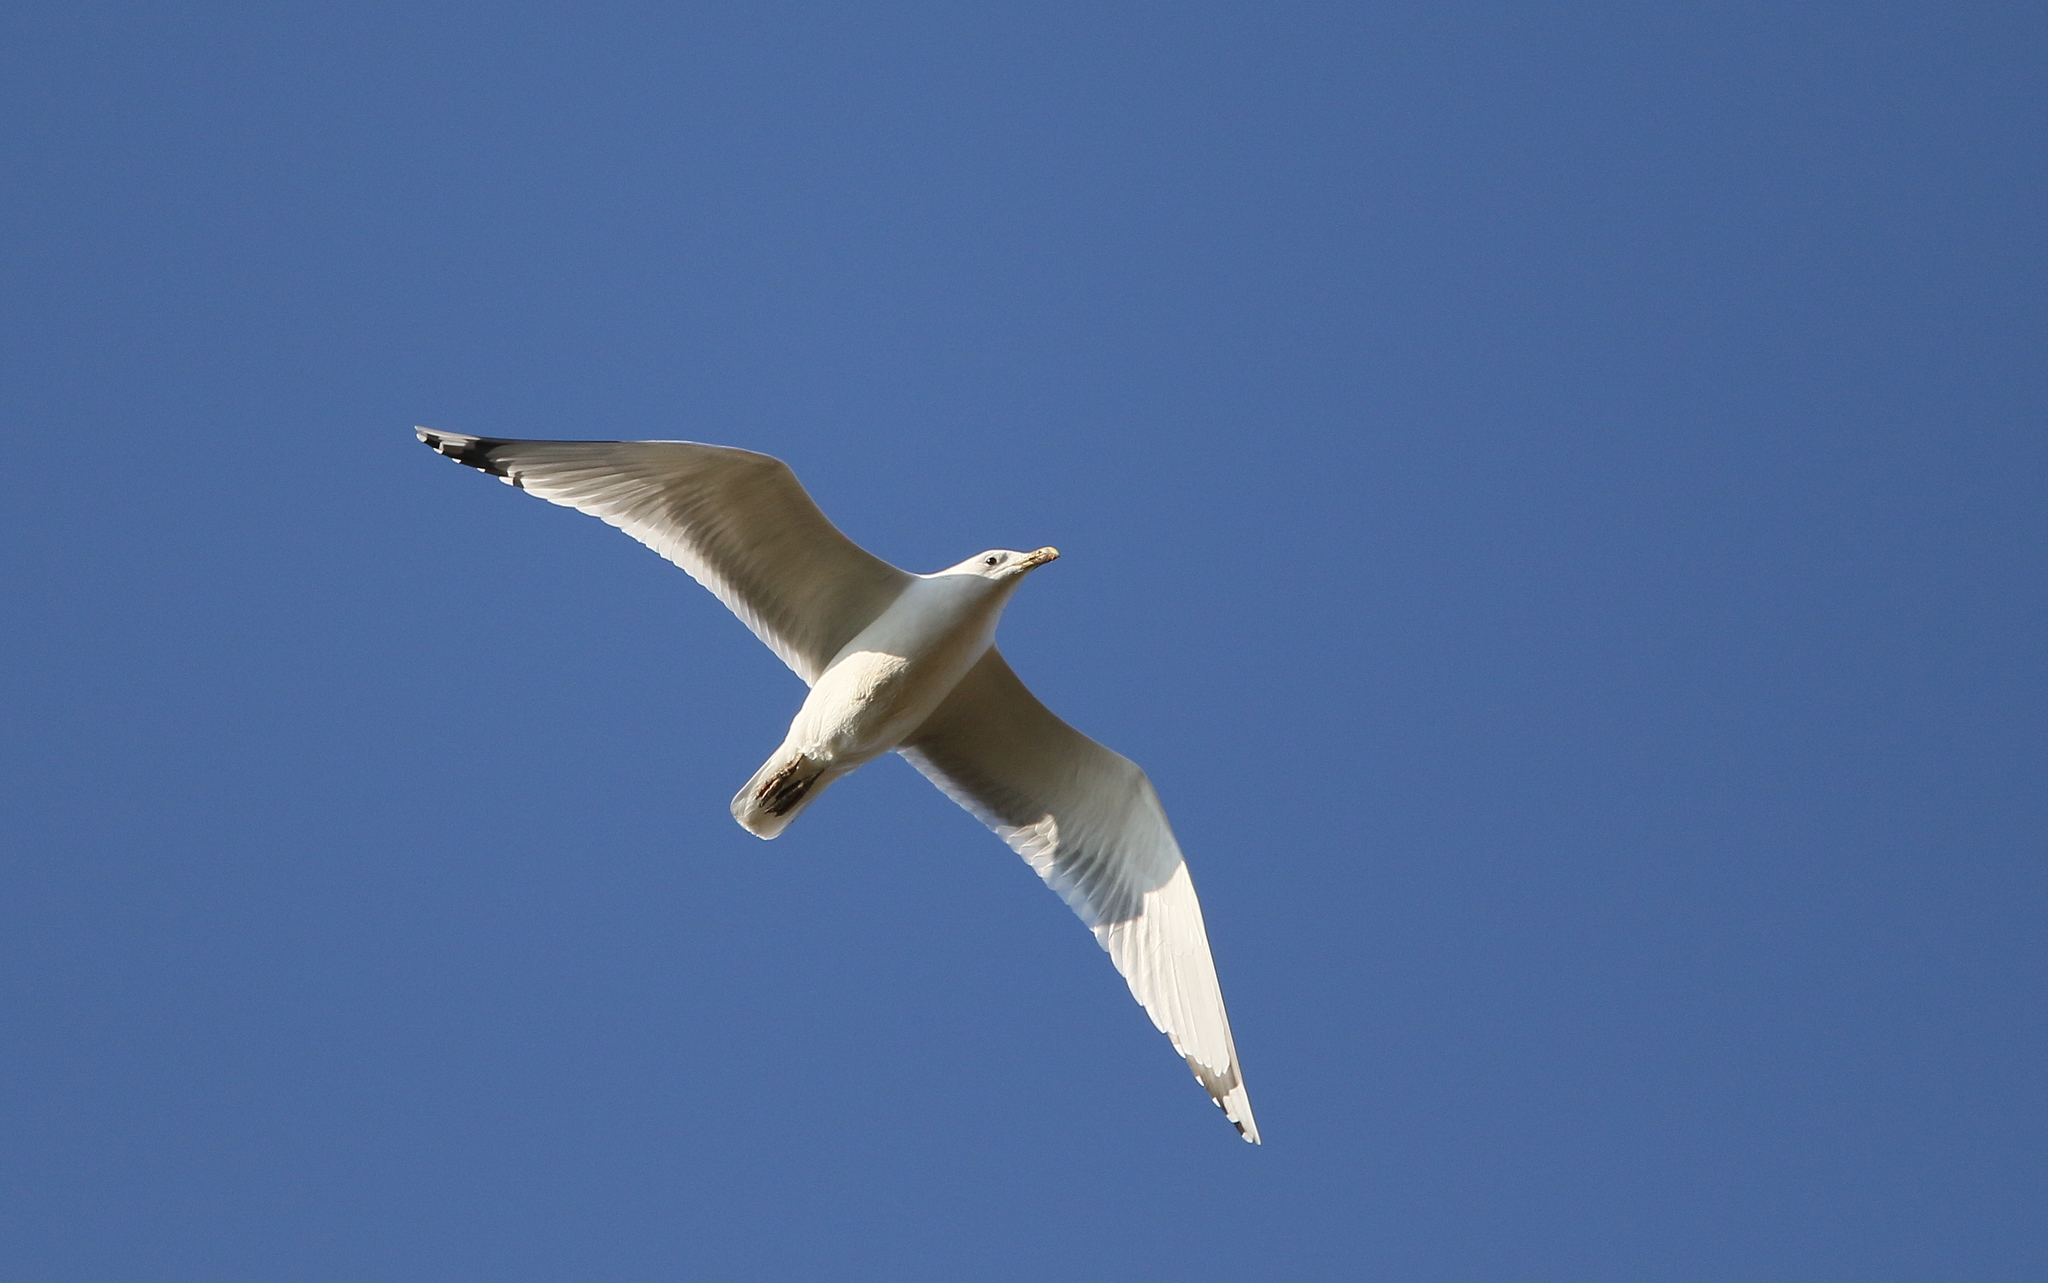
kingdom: Animalia
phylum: Chordata
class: Aves
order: Charadriiformes
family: Laridae
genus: Larus
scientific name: Larus cachinnans
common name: Caspian gull
